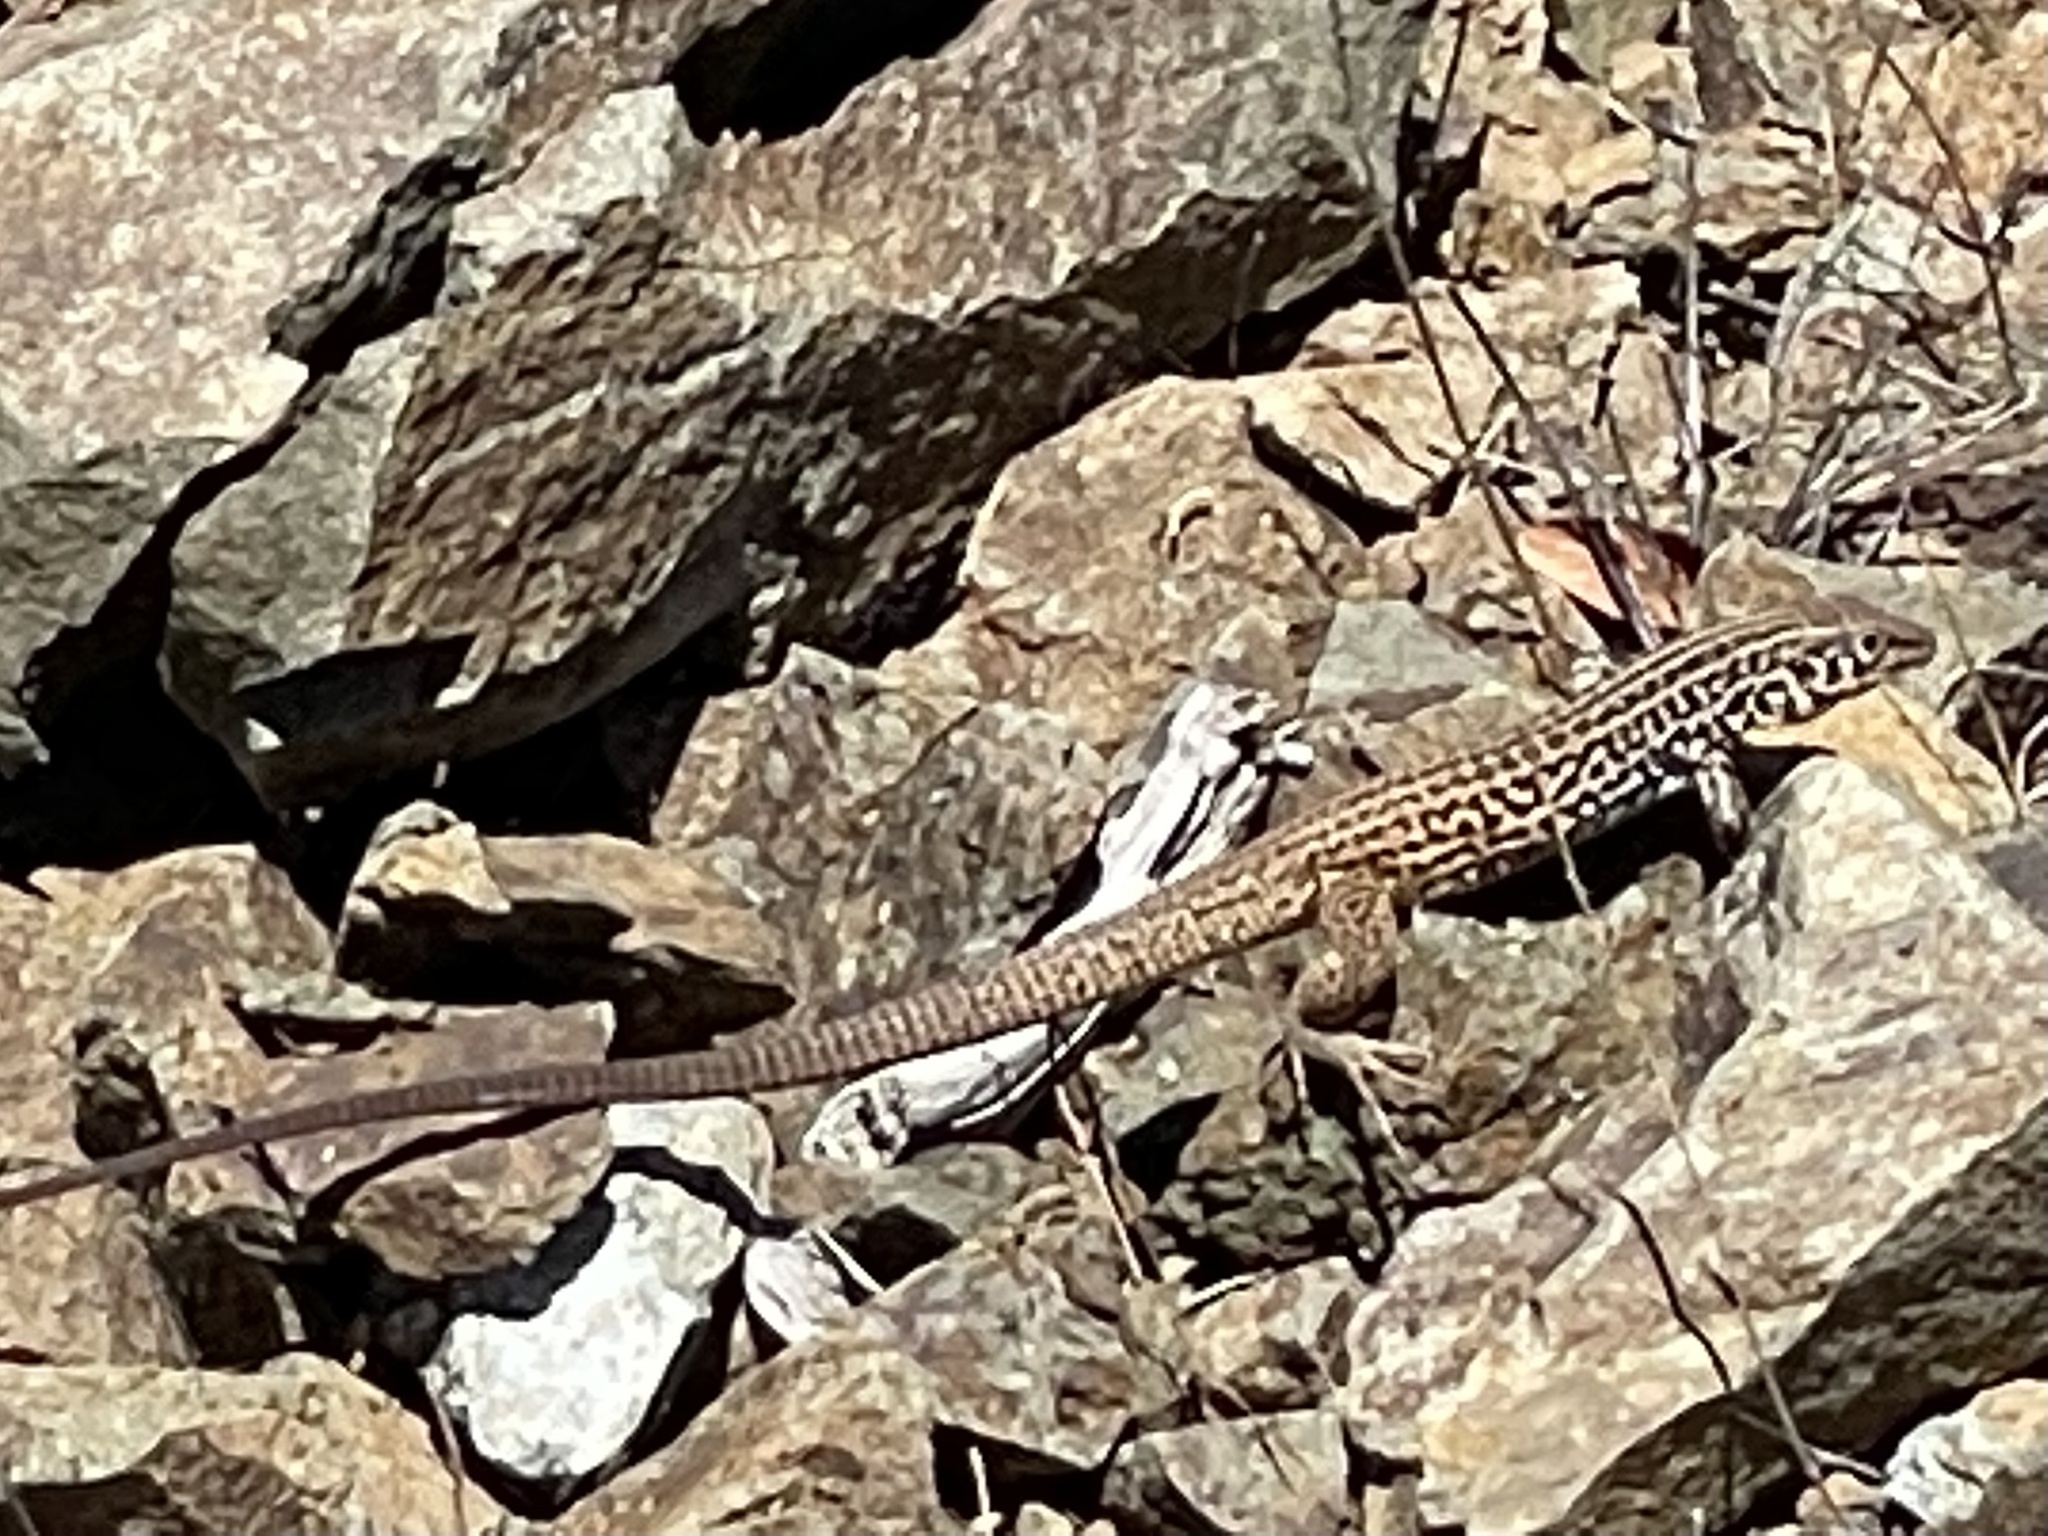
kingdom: Animalia
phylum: Chordata
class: Squamata
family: Teiidae
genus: Aspidoscelis
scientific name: Aspidoscelis tigris
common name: Tiger whiptail
